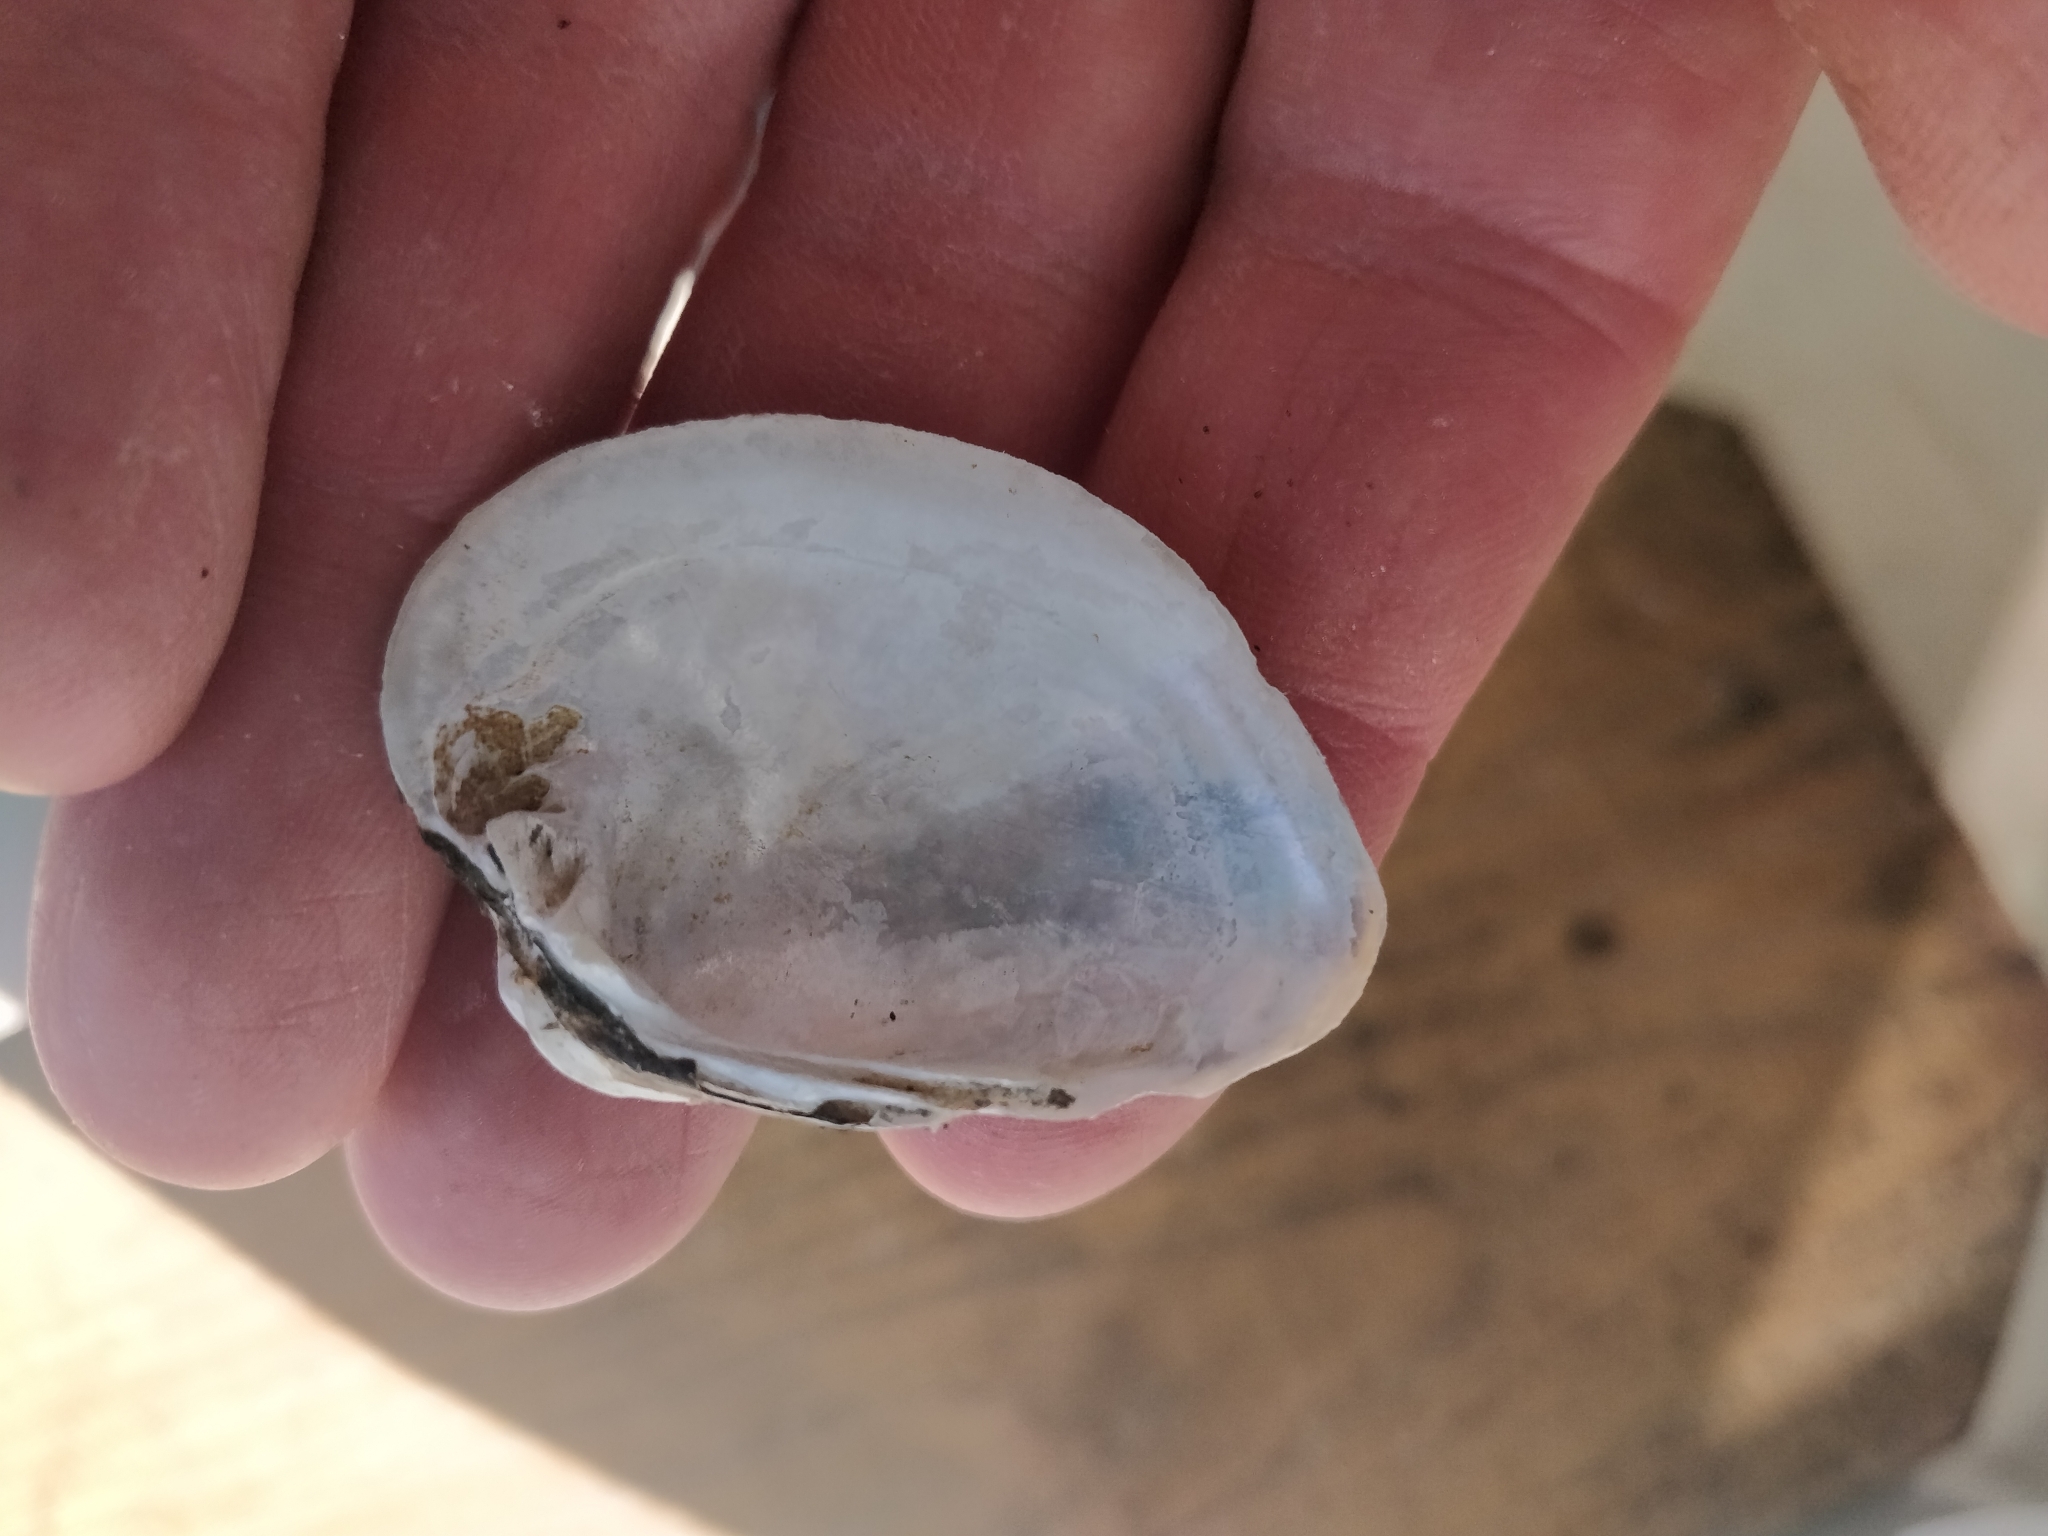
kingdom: Animalia
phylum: Mollusca
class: Bivalvia
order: Unionida
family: Unionidae
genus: Truncilla
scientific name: Truncilla truncata
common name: Deertoe
